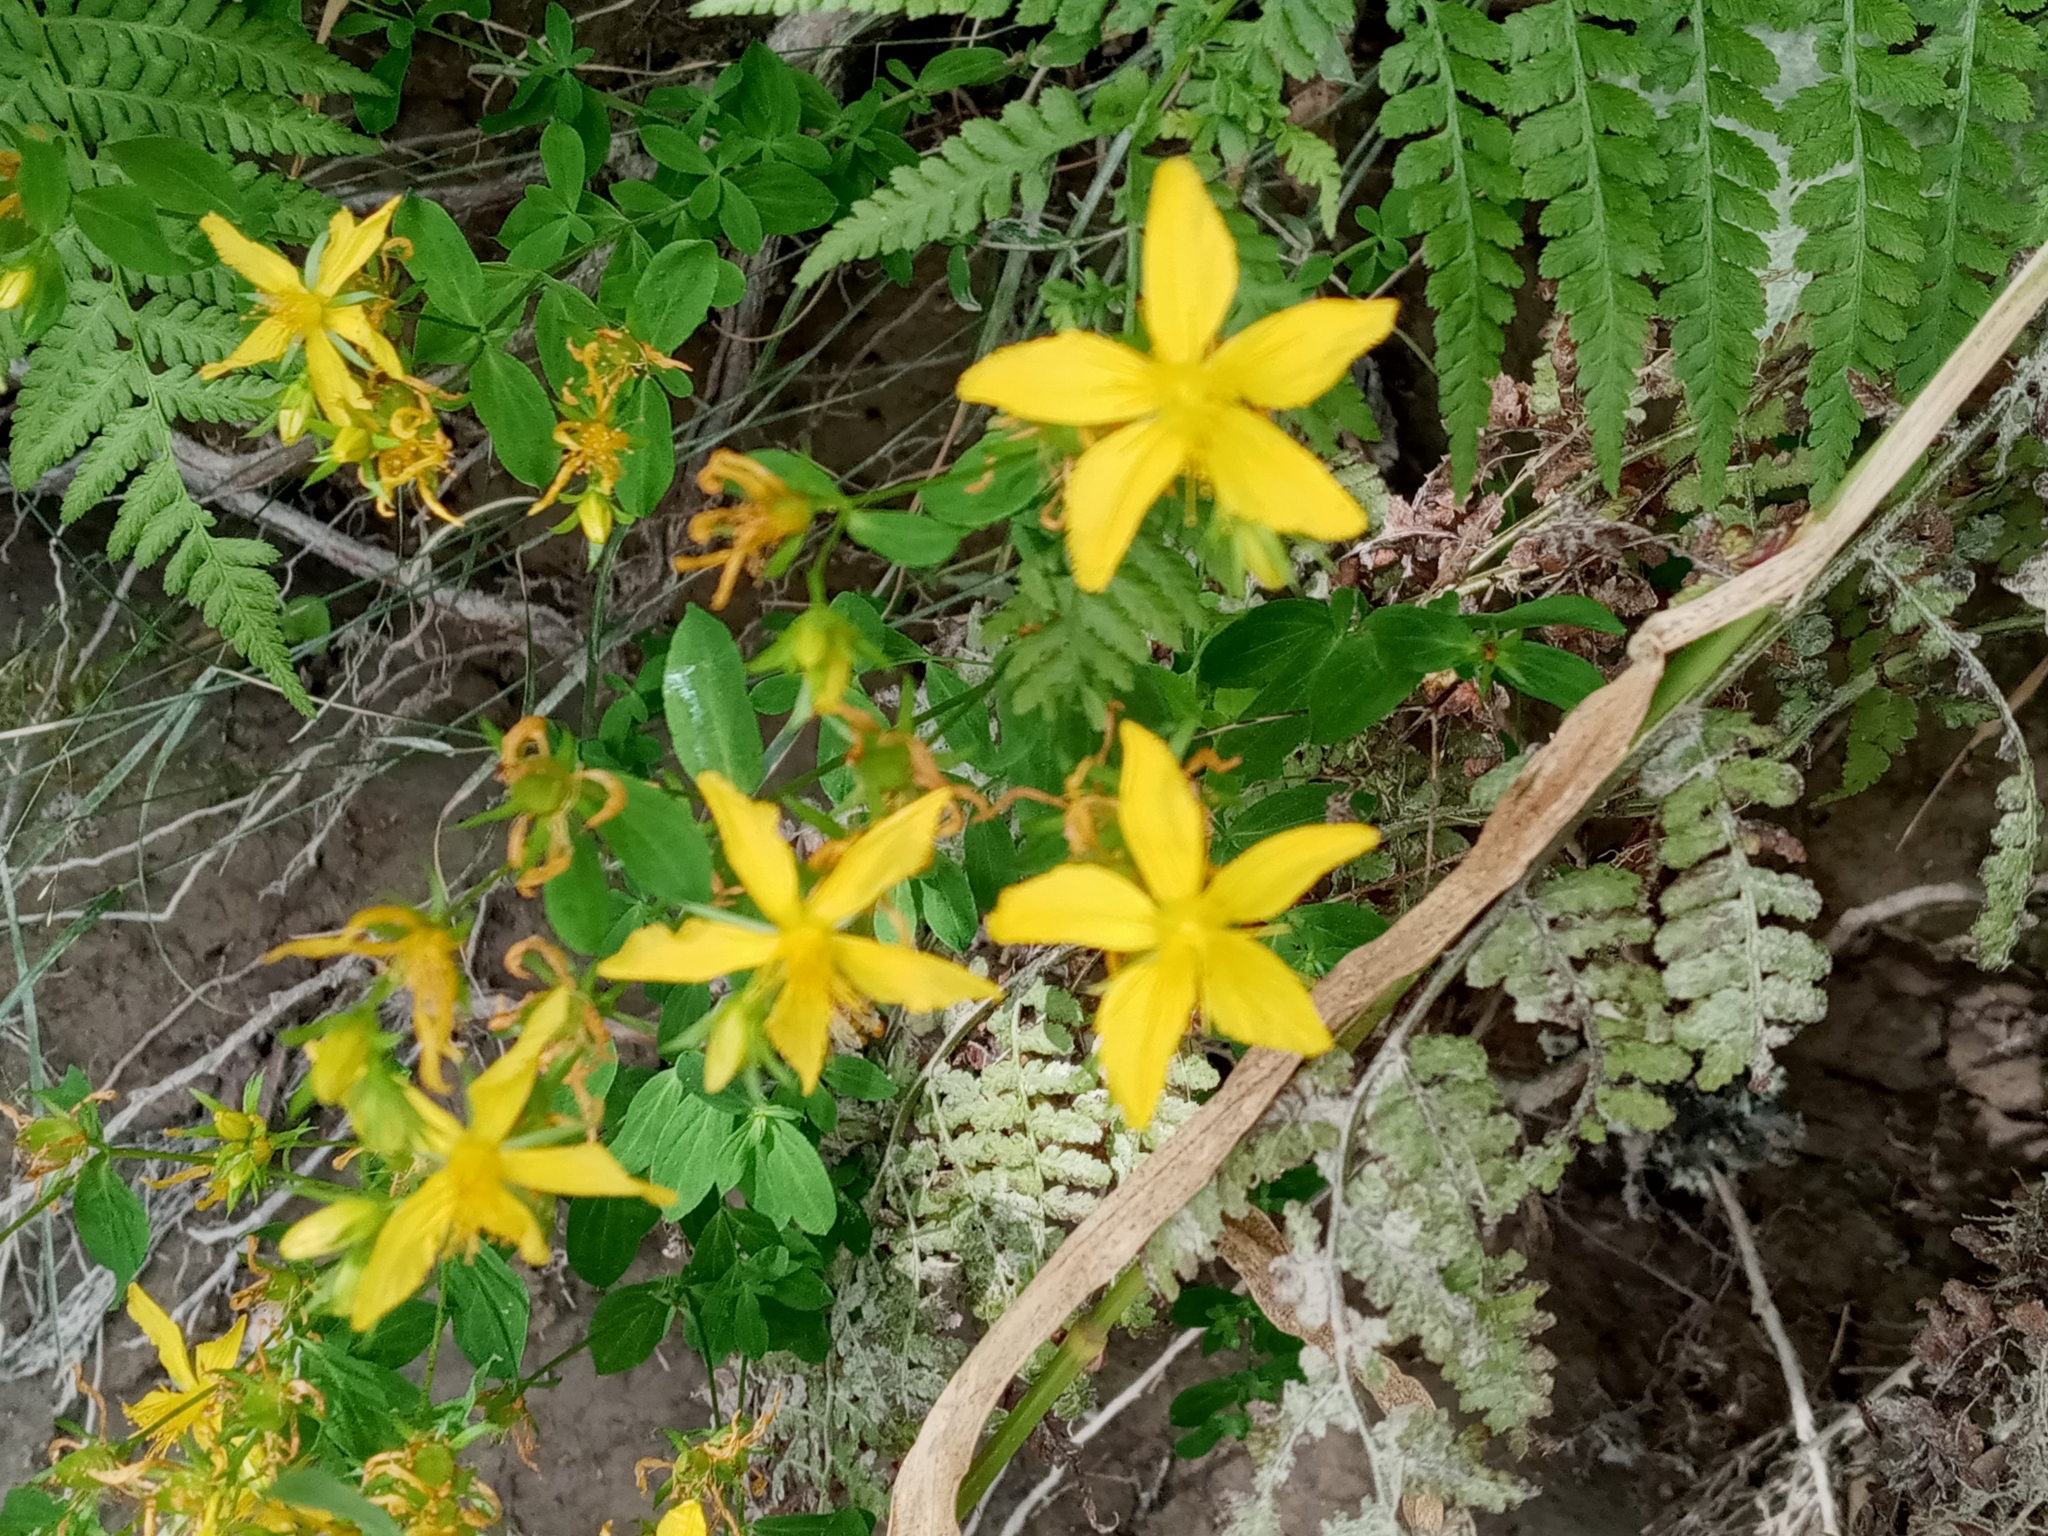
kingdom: Plantae
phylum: Tracheophyta
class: Magnoliopsida
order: Malpighiales
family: Hypericaceae
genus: Hypericum
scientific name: Hypericum perforatum
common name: Common st. johnswort
